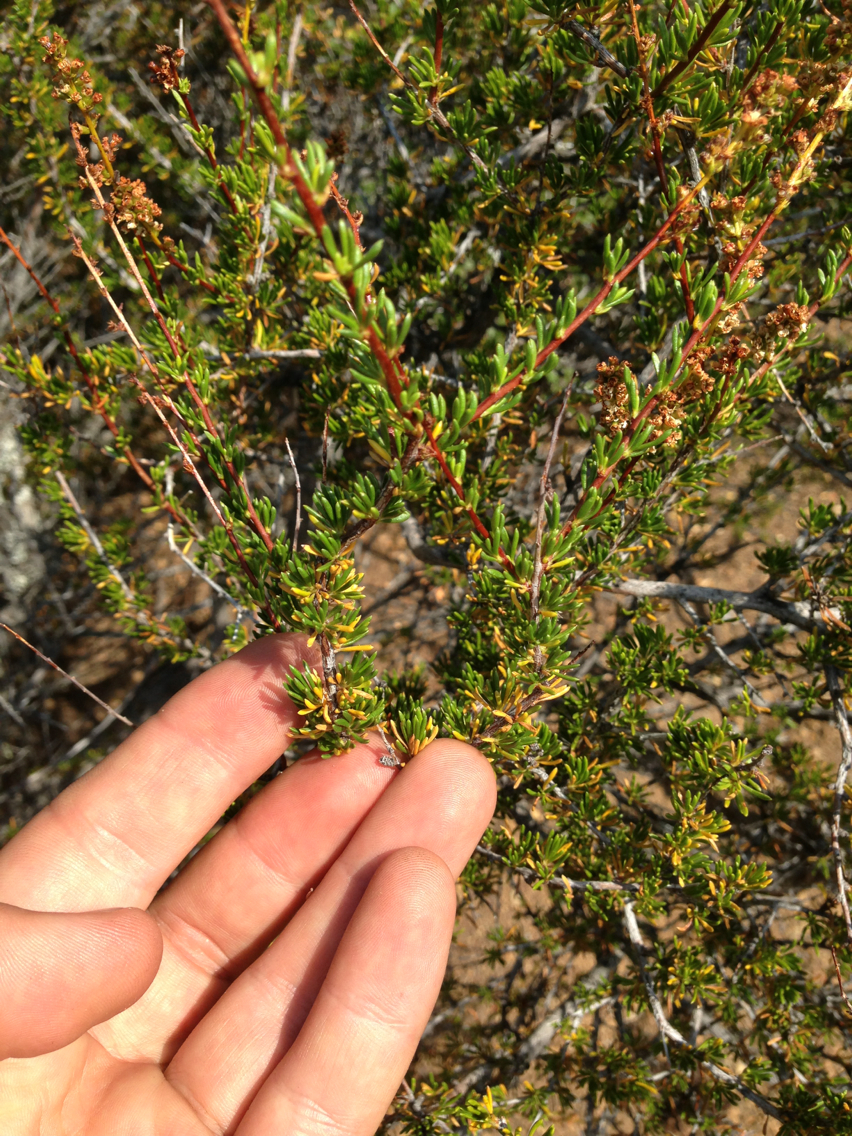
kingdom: Plantae
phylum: Tracheophyta
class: Magnoliopsida
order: Rosales
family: Rosaceae
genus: Adenostoma
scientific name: Adenostoma fasciculatum
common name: Chamise
